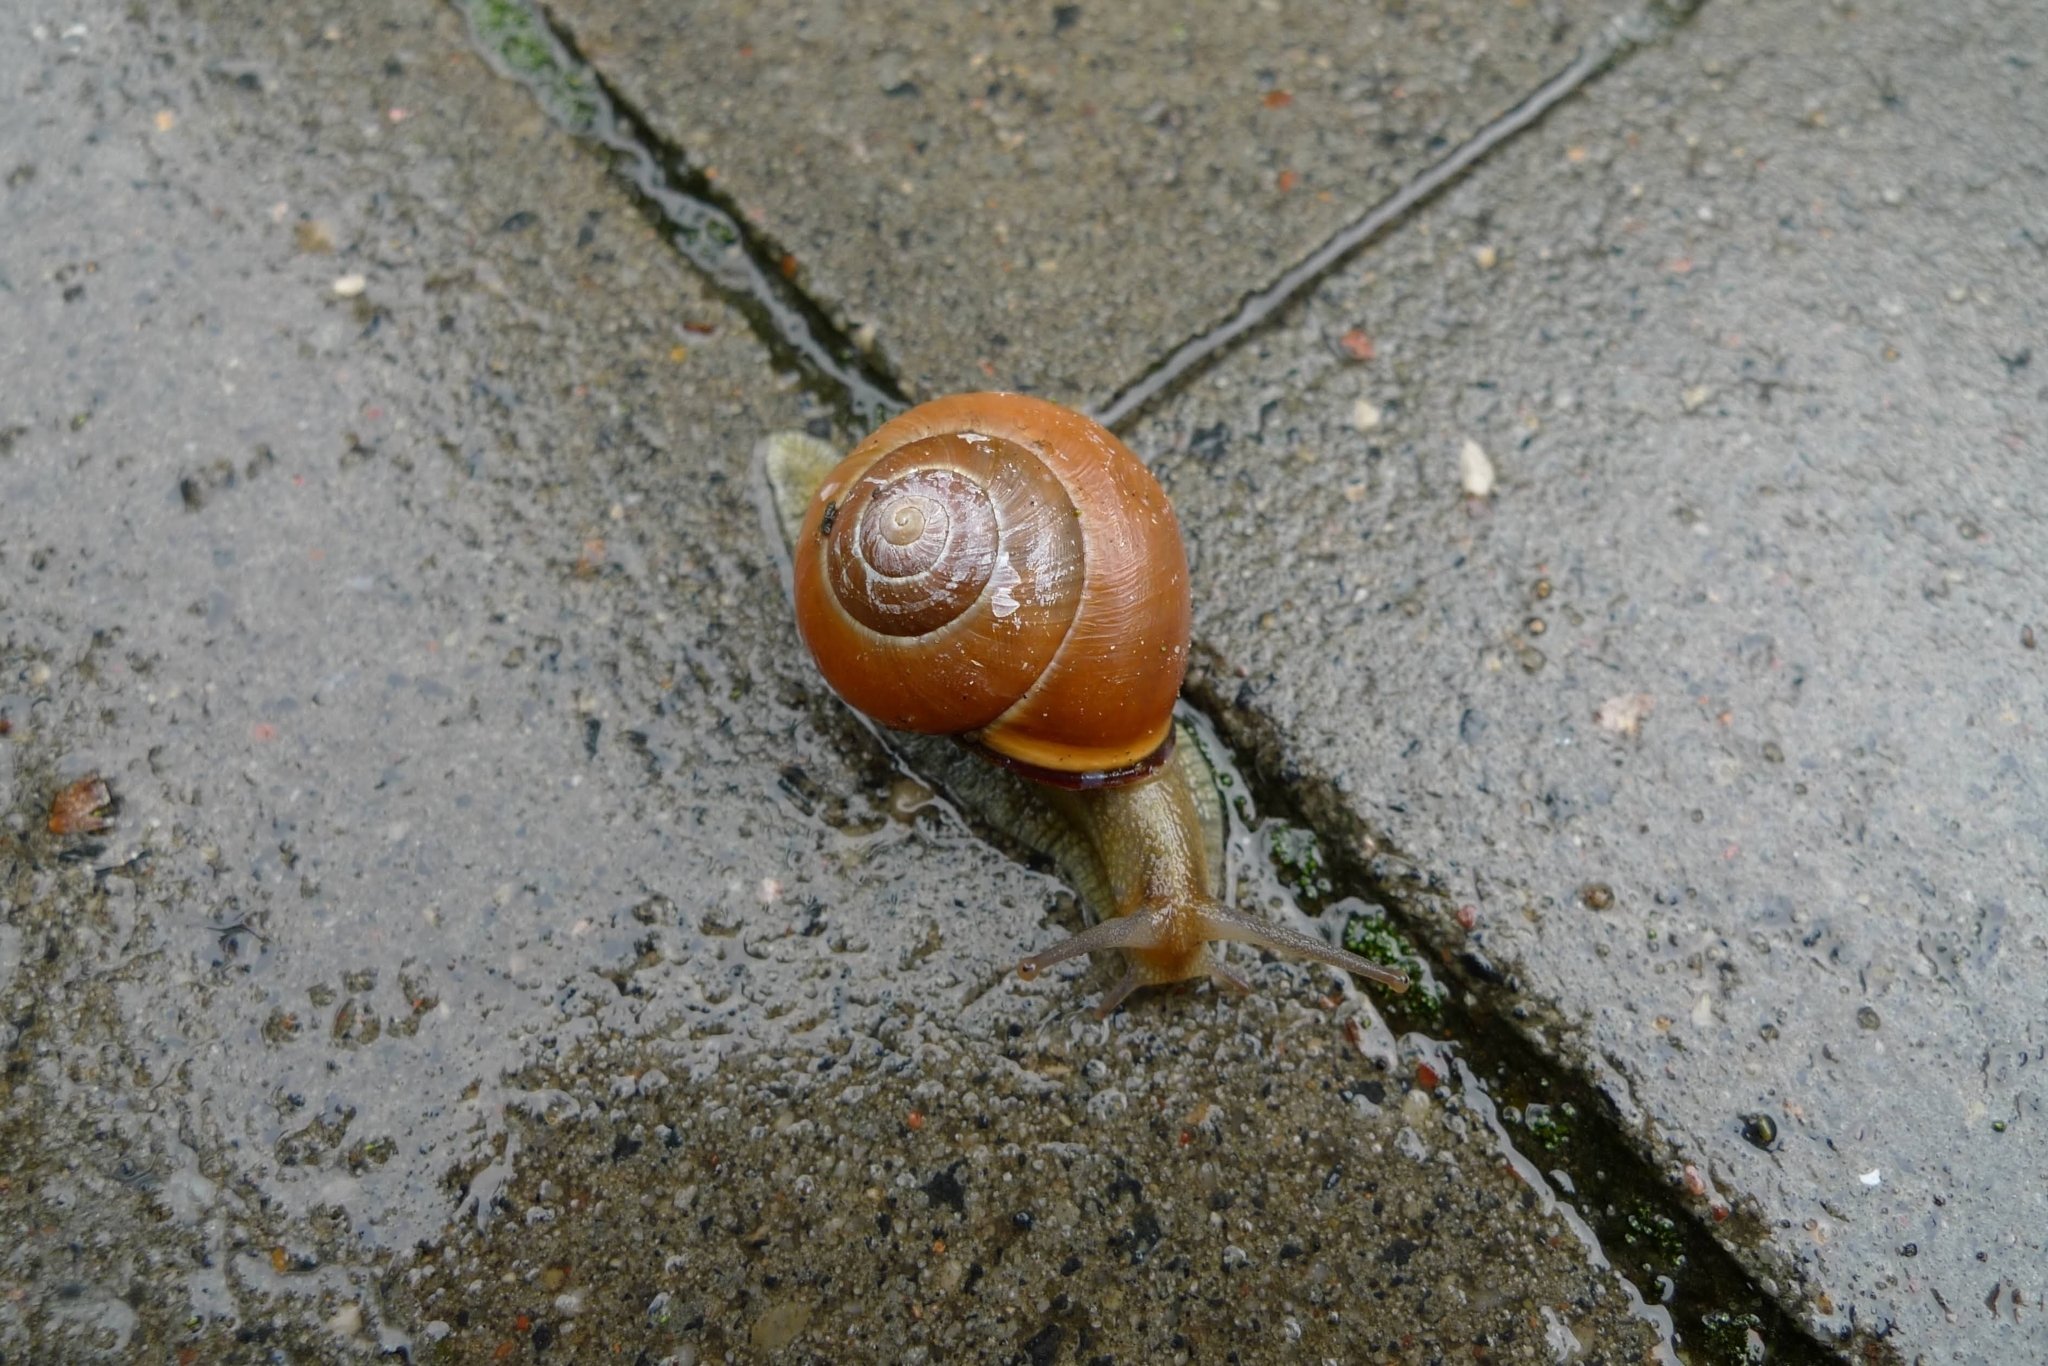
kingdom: Animalia
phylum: Mollusca
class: Gastropoda
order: Stylommatophora
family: Helicidae
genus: Cepaea
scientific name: Cepaea nemoralis
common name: Grovesnail
